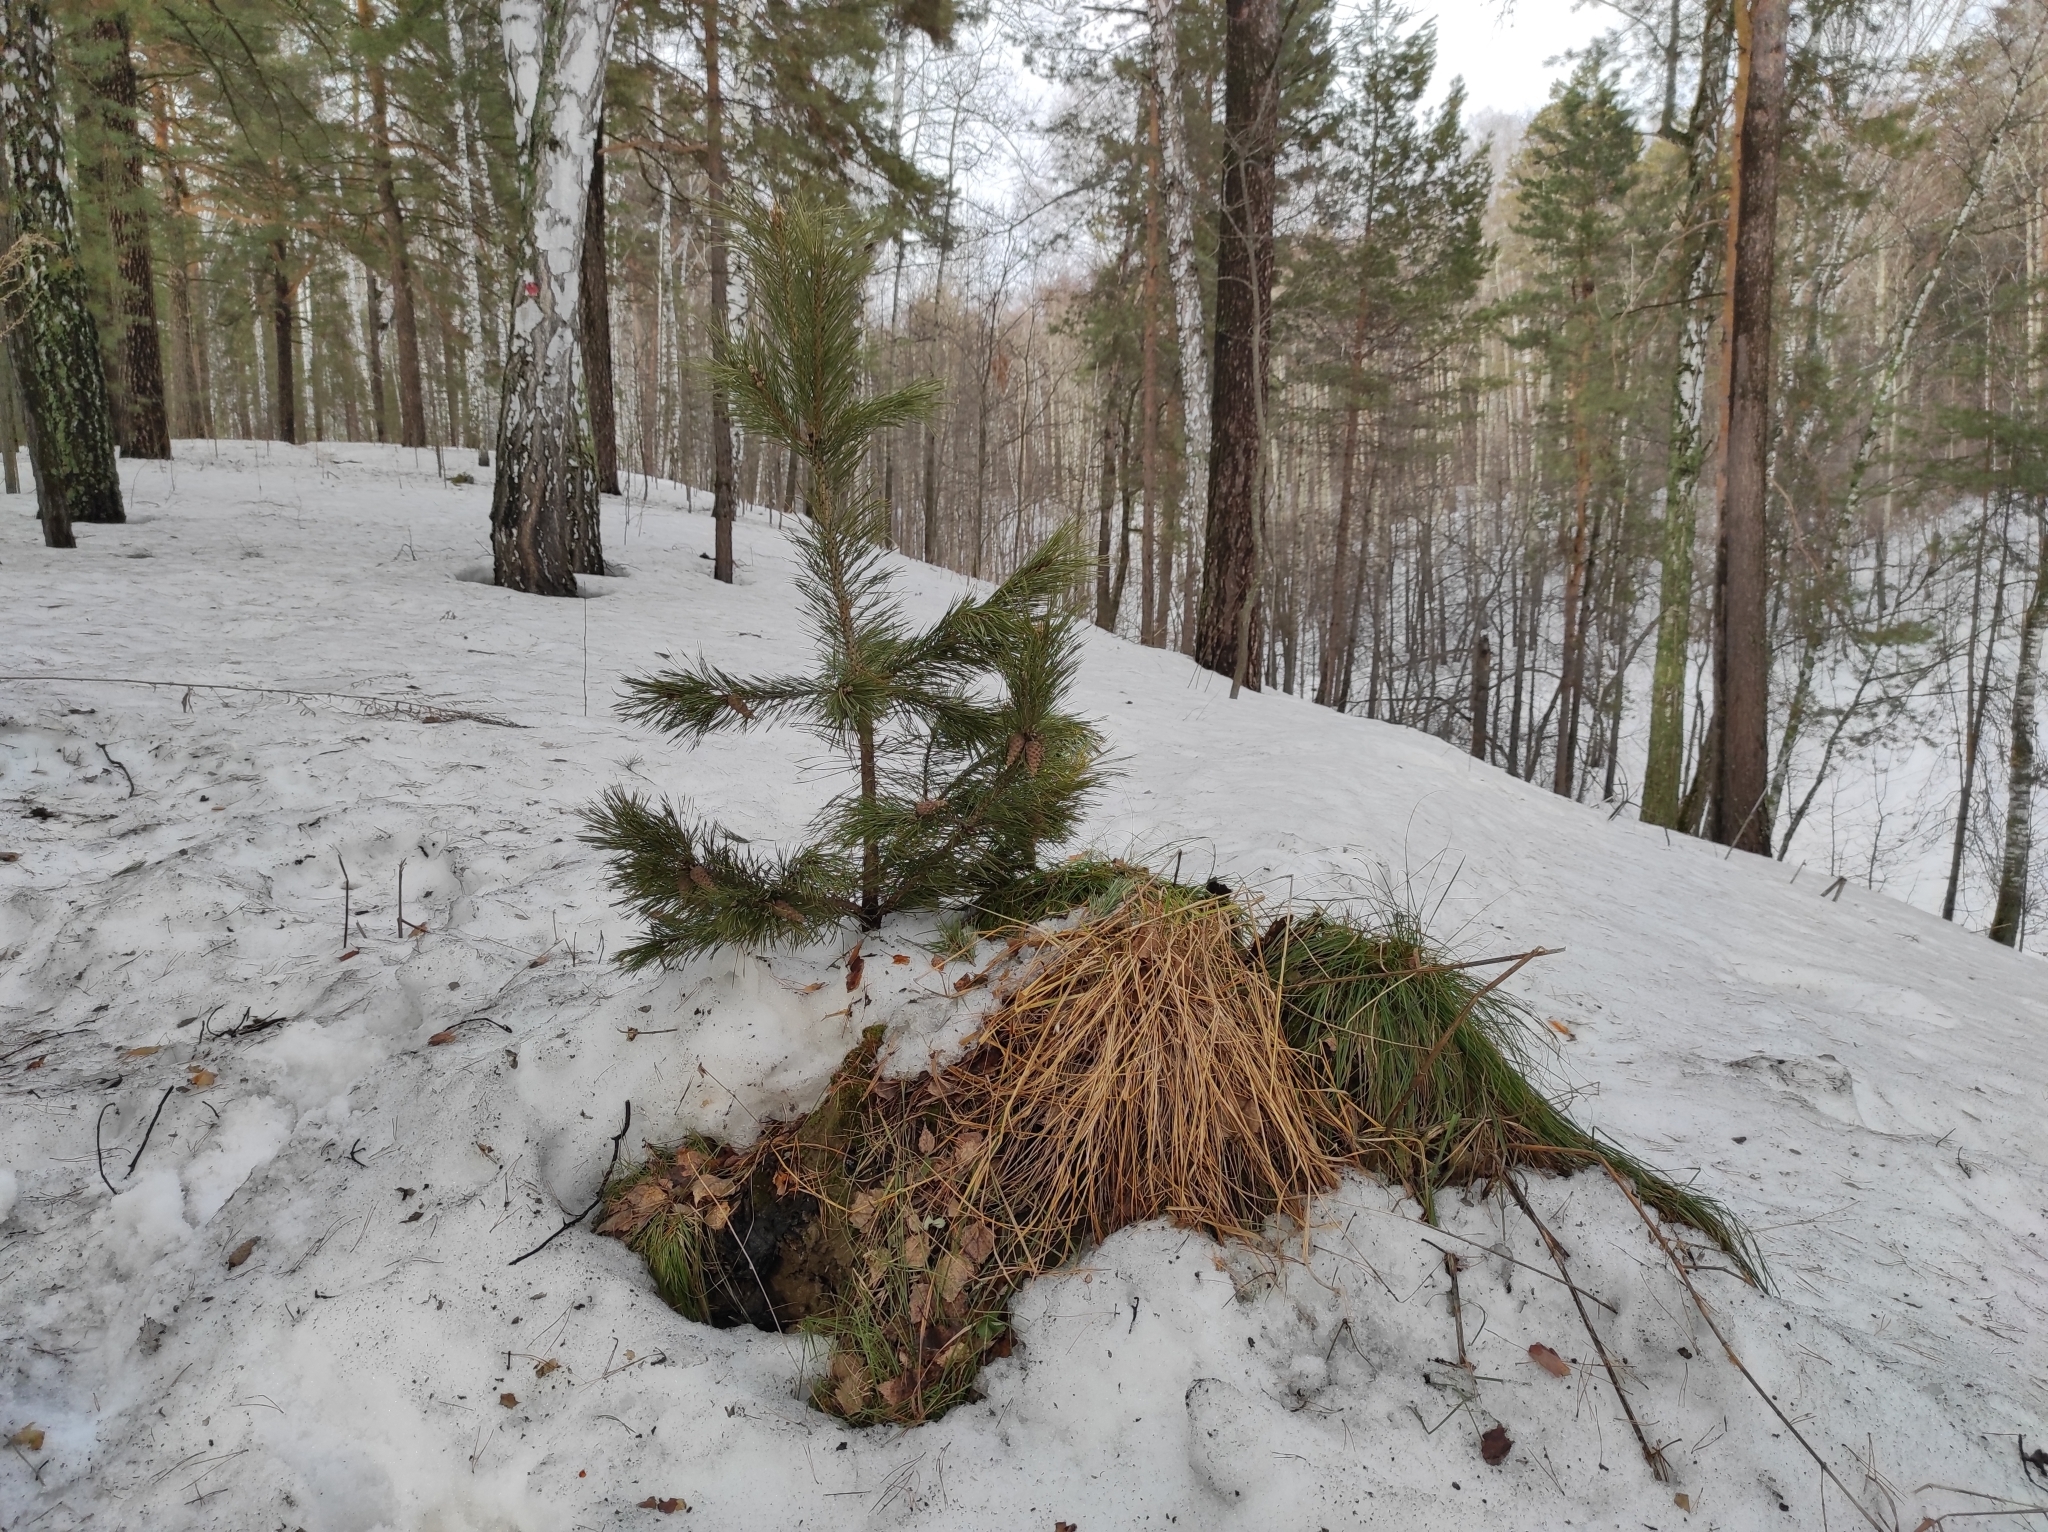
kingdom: Plantae
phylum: Tracheophyta
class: Pinopsida
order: Pinales
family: Pinaceae
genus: Pinus
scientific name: Pinus sylvestris
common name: Scots pine
